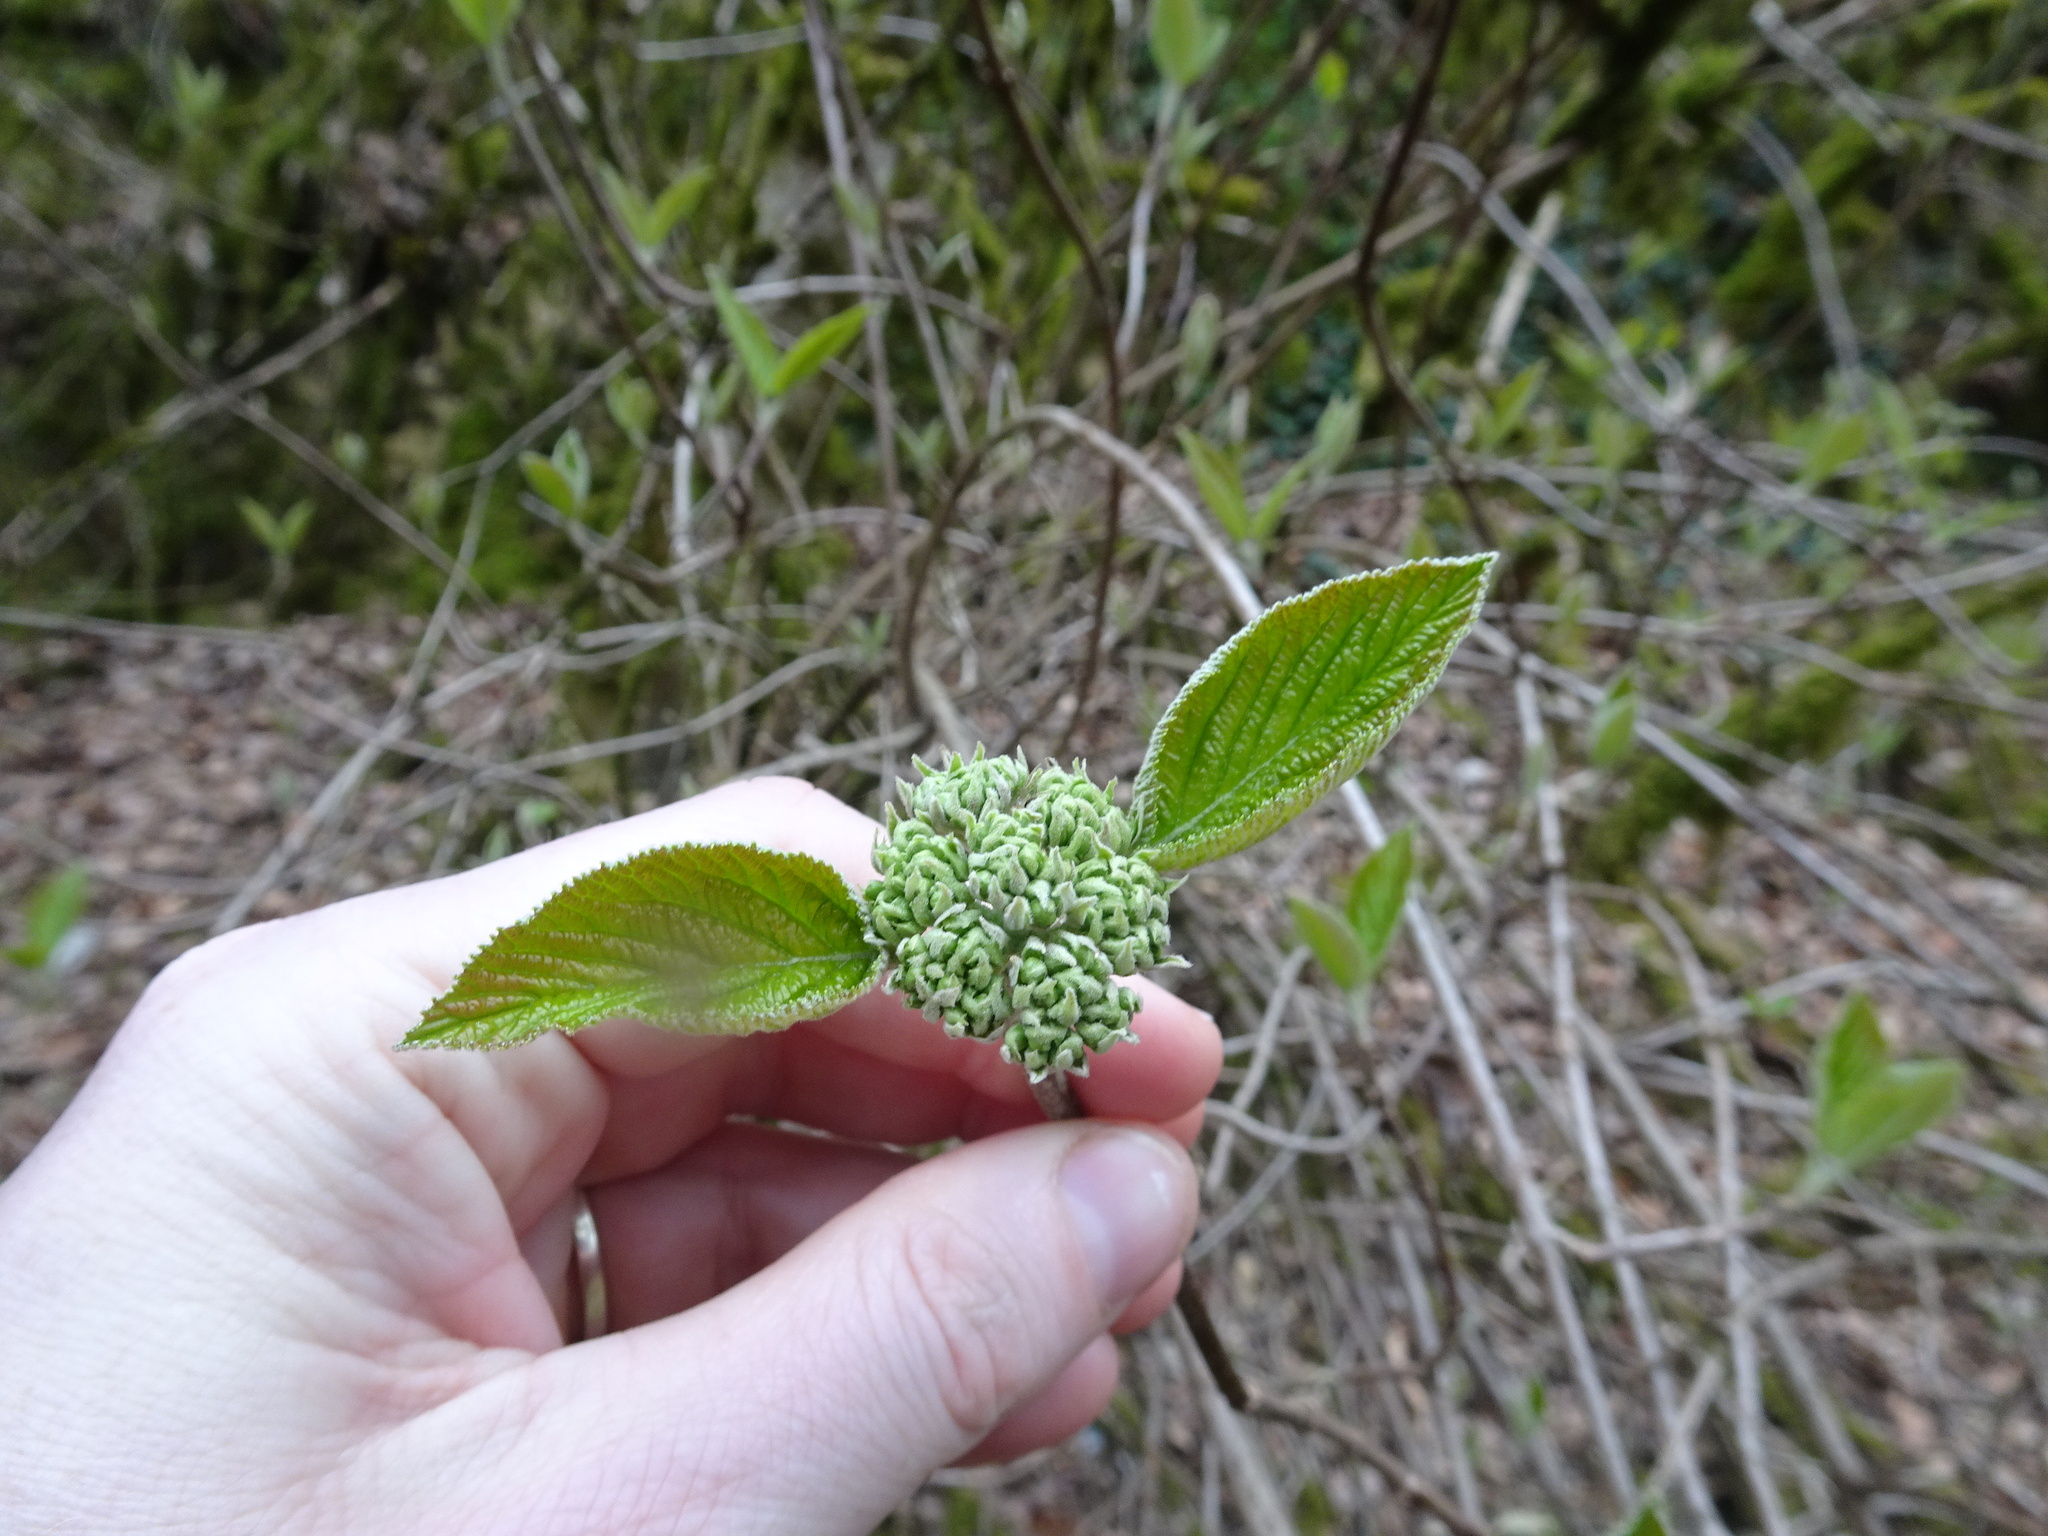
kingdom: Plantae
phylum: Tracheophyta
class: Magnoliopsida
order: Dipsacales
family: Viburnaceae
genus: Viburnum
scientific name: Viburnum lantana
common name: Wayfaring tree
